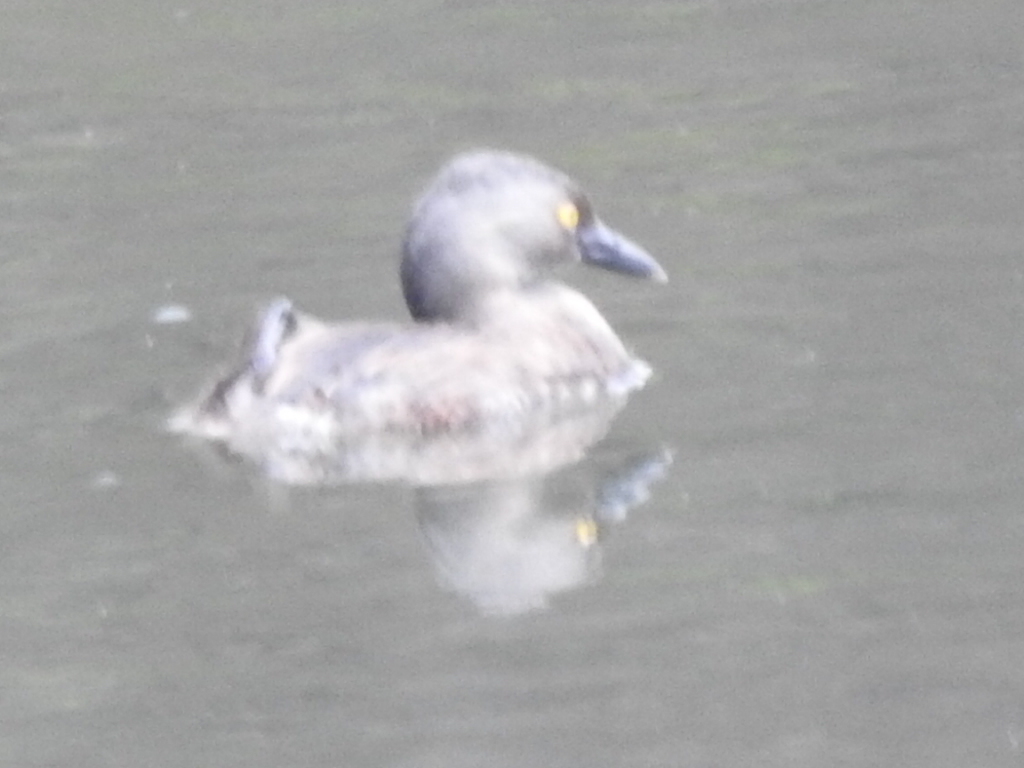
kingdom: Animalia
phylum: Chordata
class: Aves
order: Podicipediformes
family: Podicipedidae
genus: Tachybaptus
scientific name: Tachybaptus dominicus
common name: Least grebe
